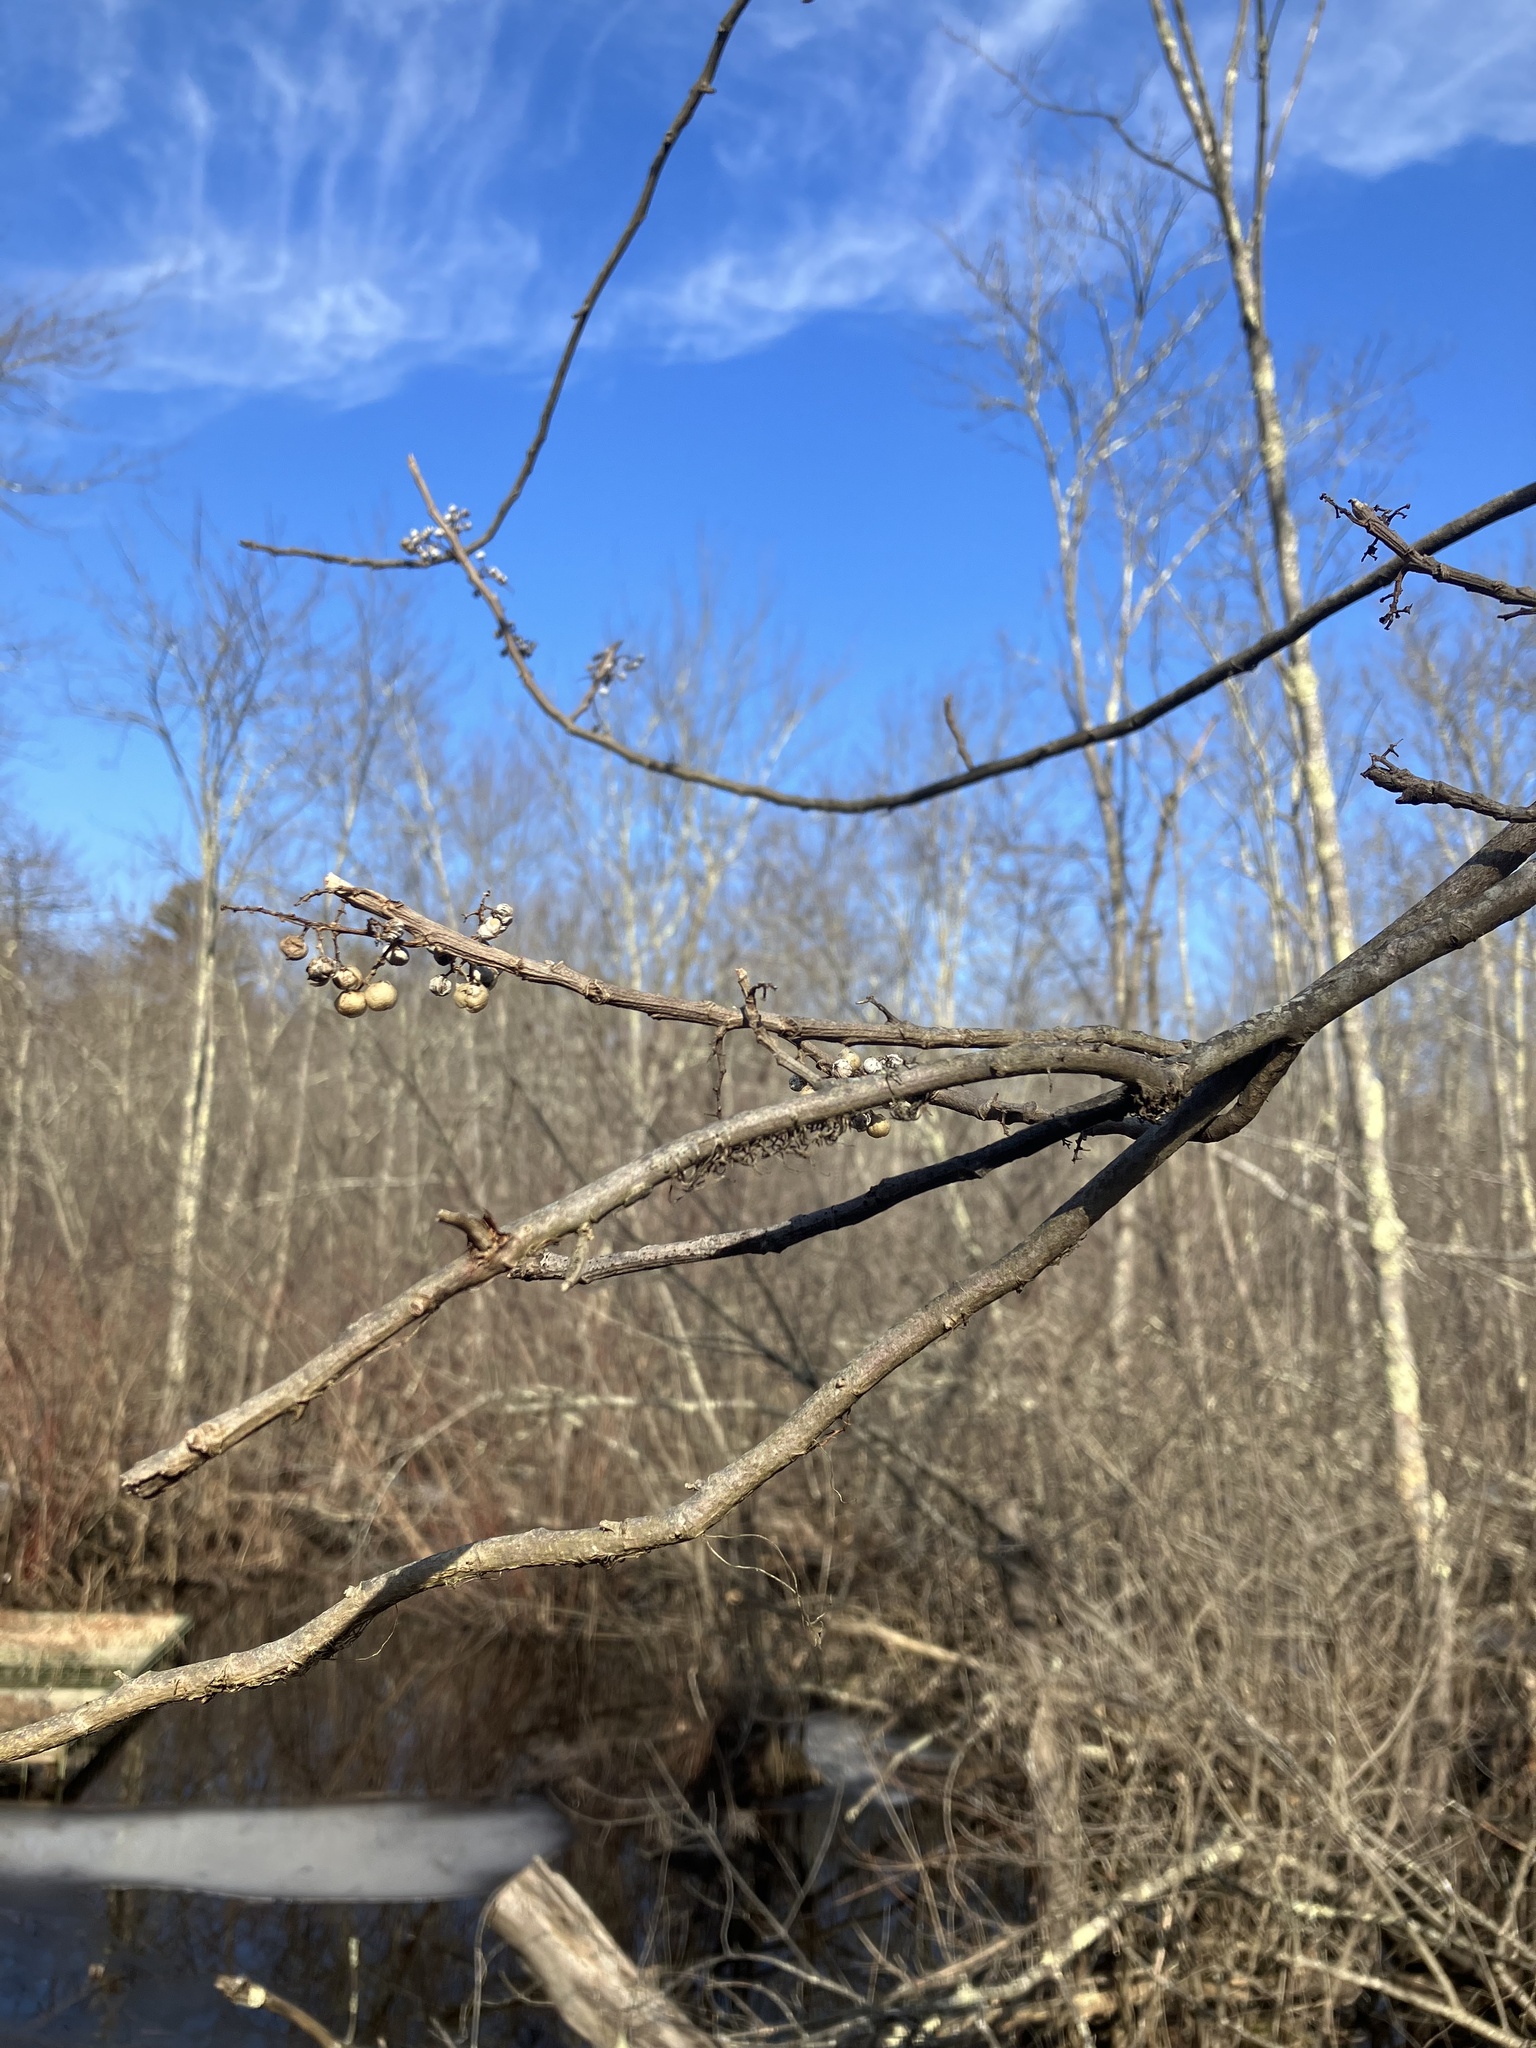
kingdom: Plantae
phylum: Tracheophyta
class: Magnoliopsida
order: Sapindales
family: Anacardiaceae
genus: Toxicodendron
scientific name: Toxicodendron radicans
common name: Poison ivy
